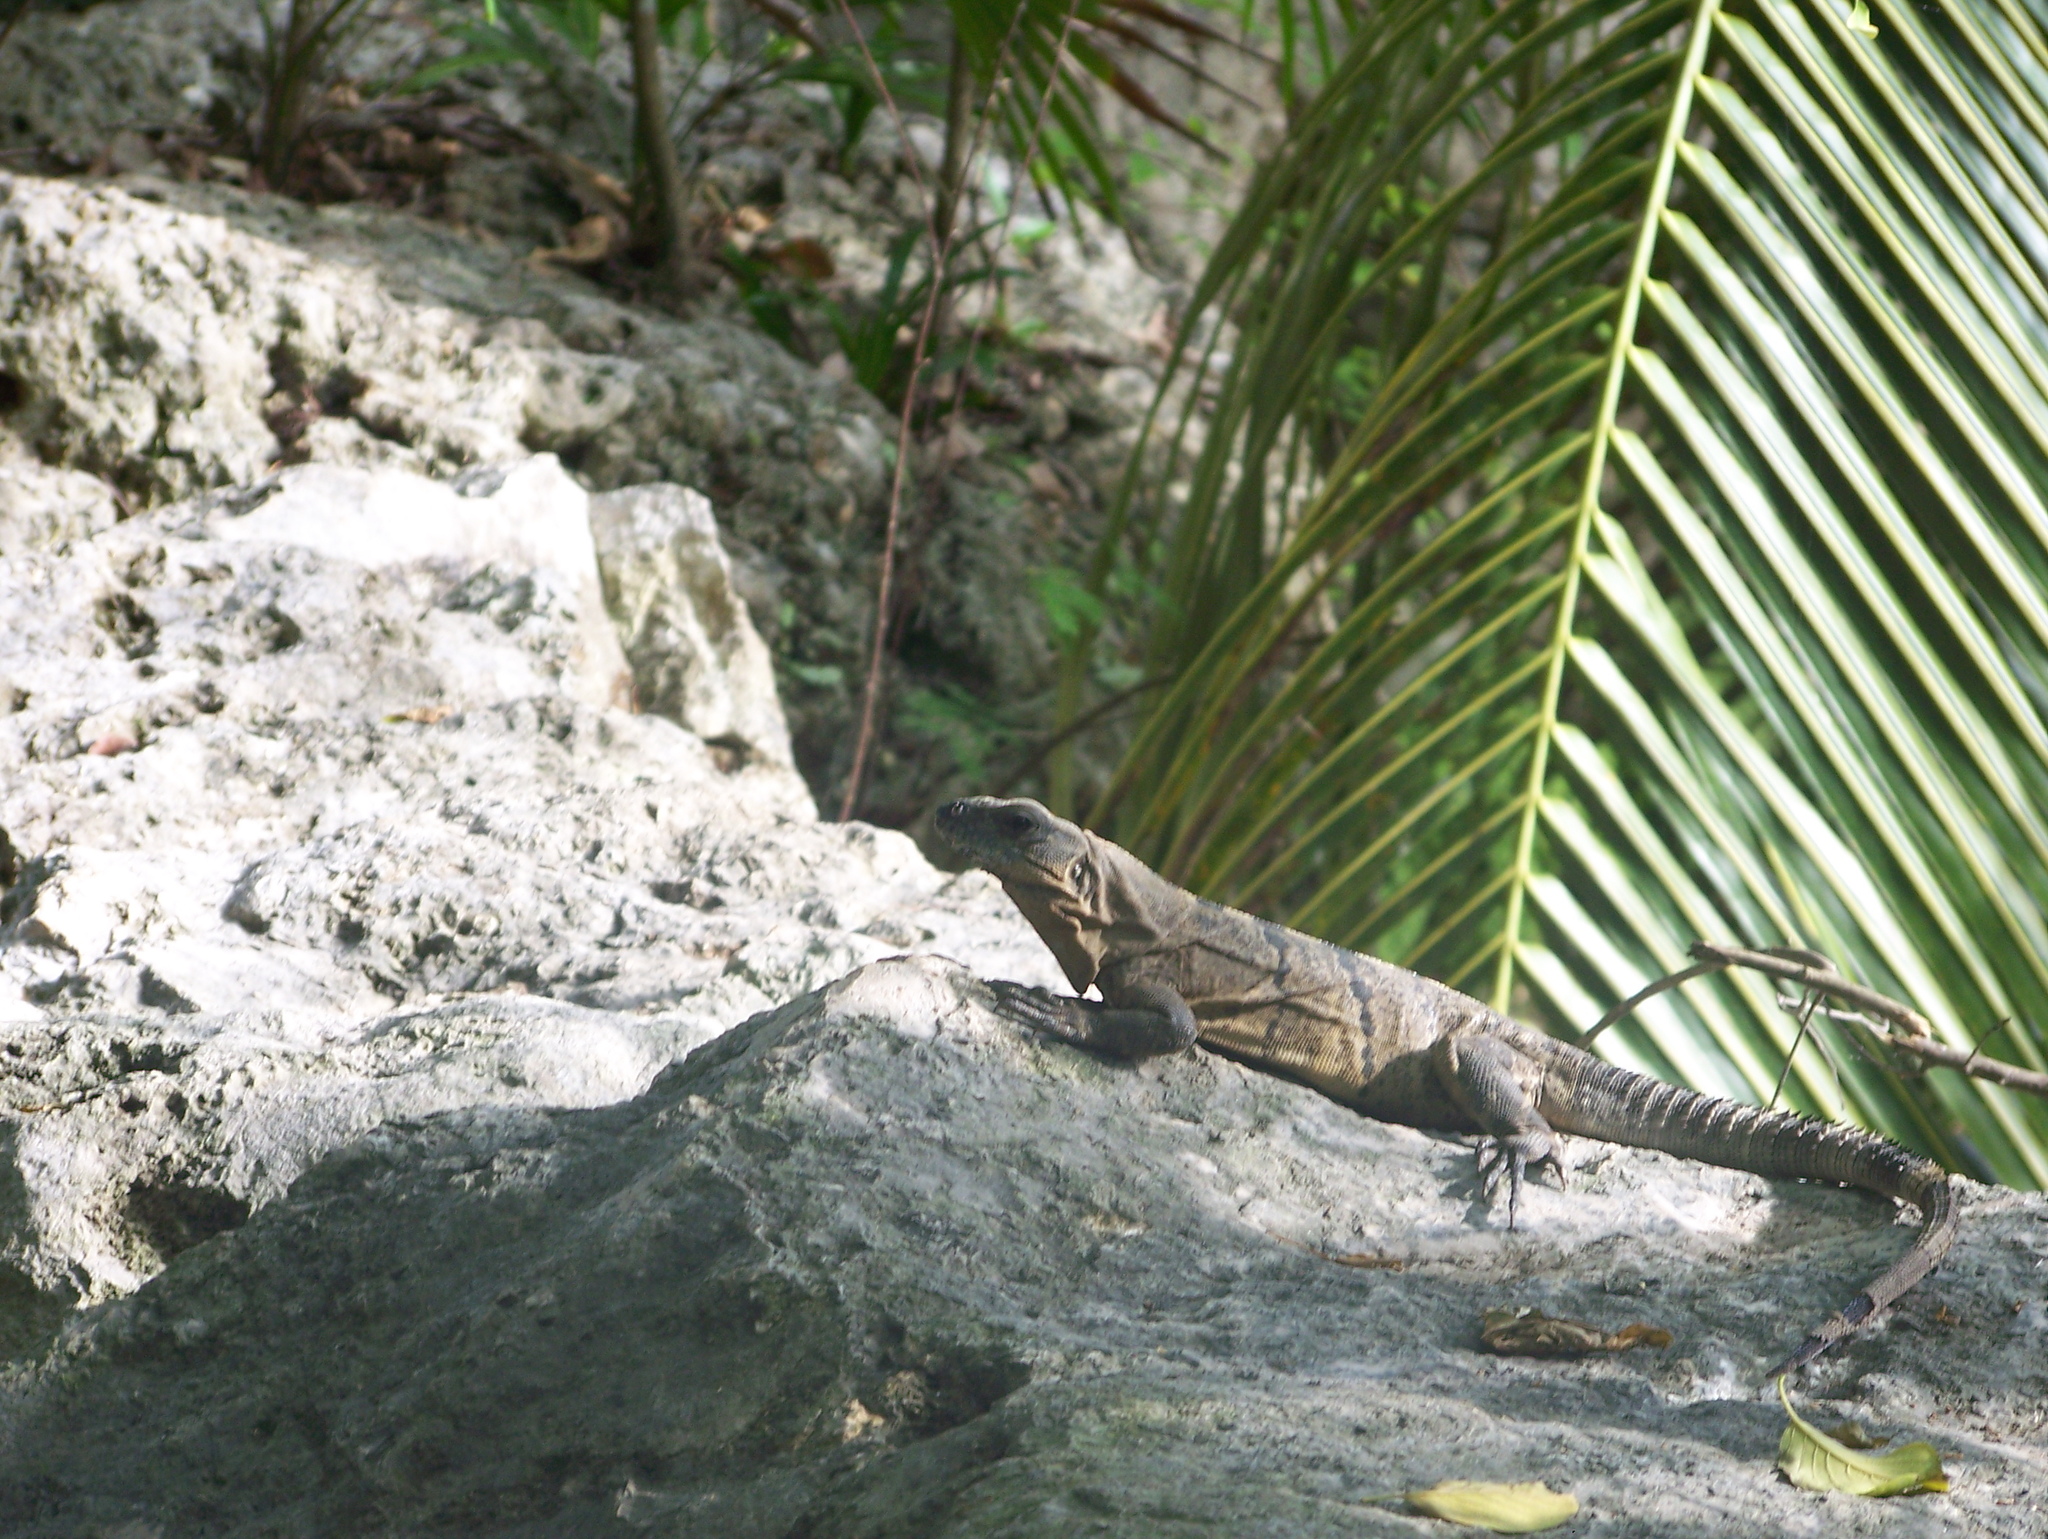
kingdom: Animalia
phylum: Chordata
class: Squamata
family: Iguanidae
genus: Ctenosaura
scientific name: Ctenosaura similis
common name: Black spiny-tailed iguana
